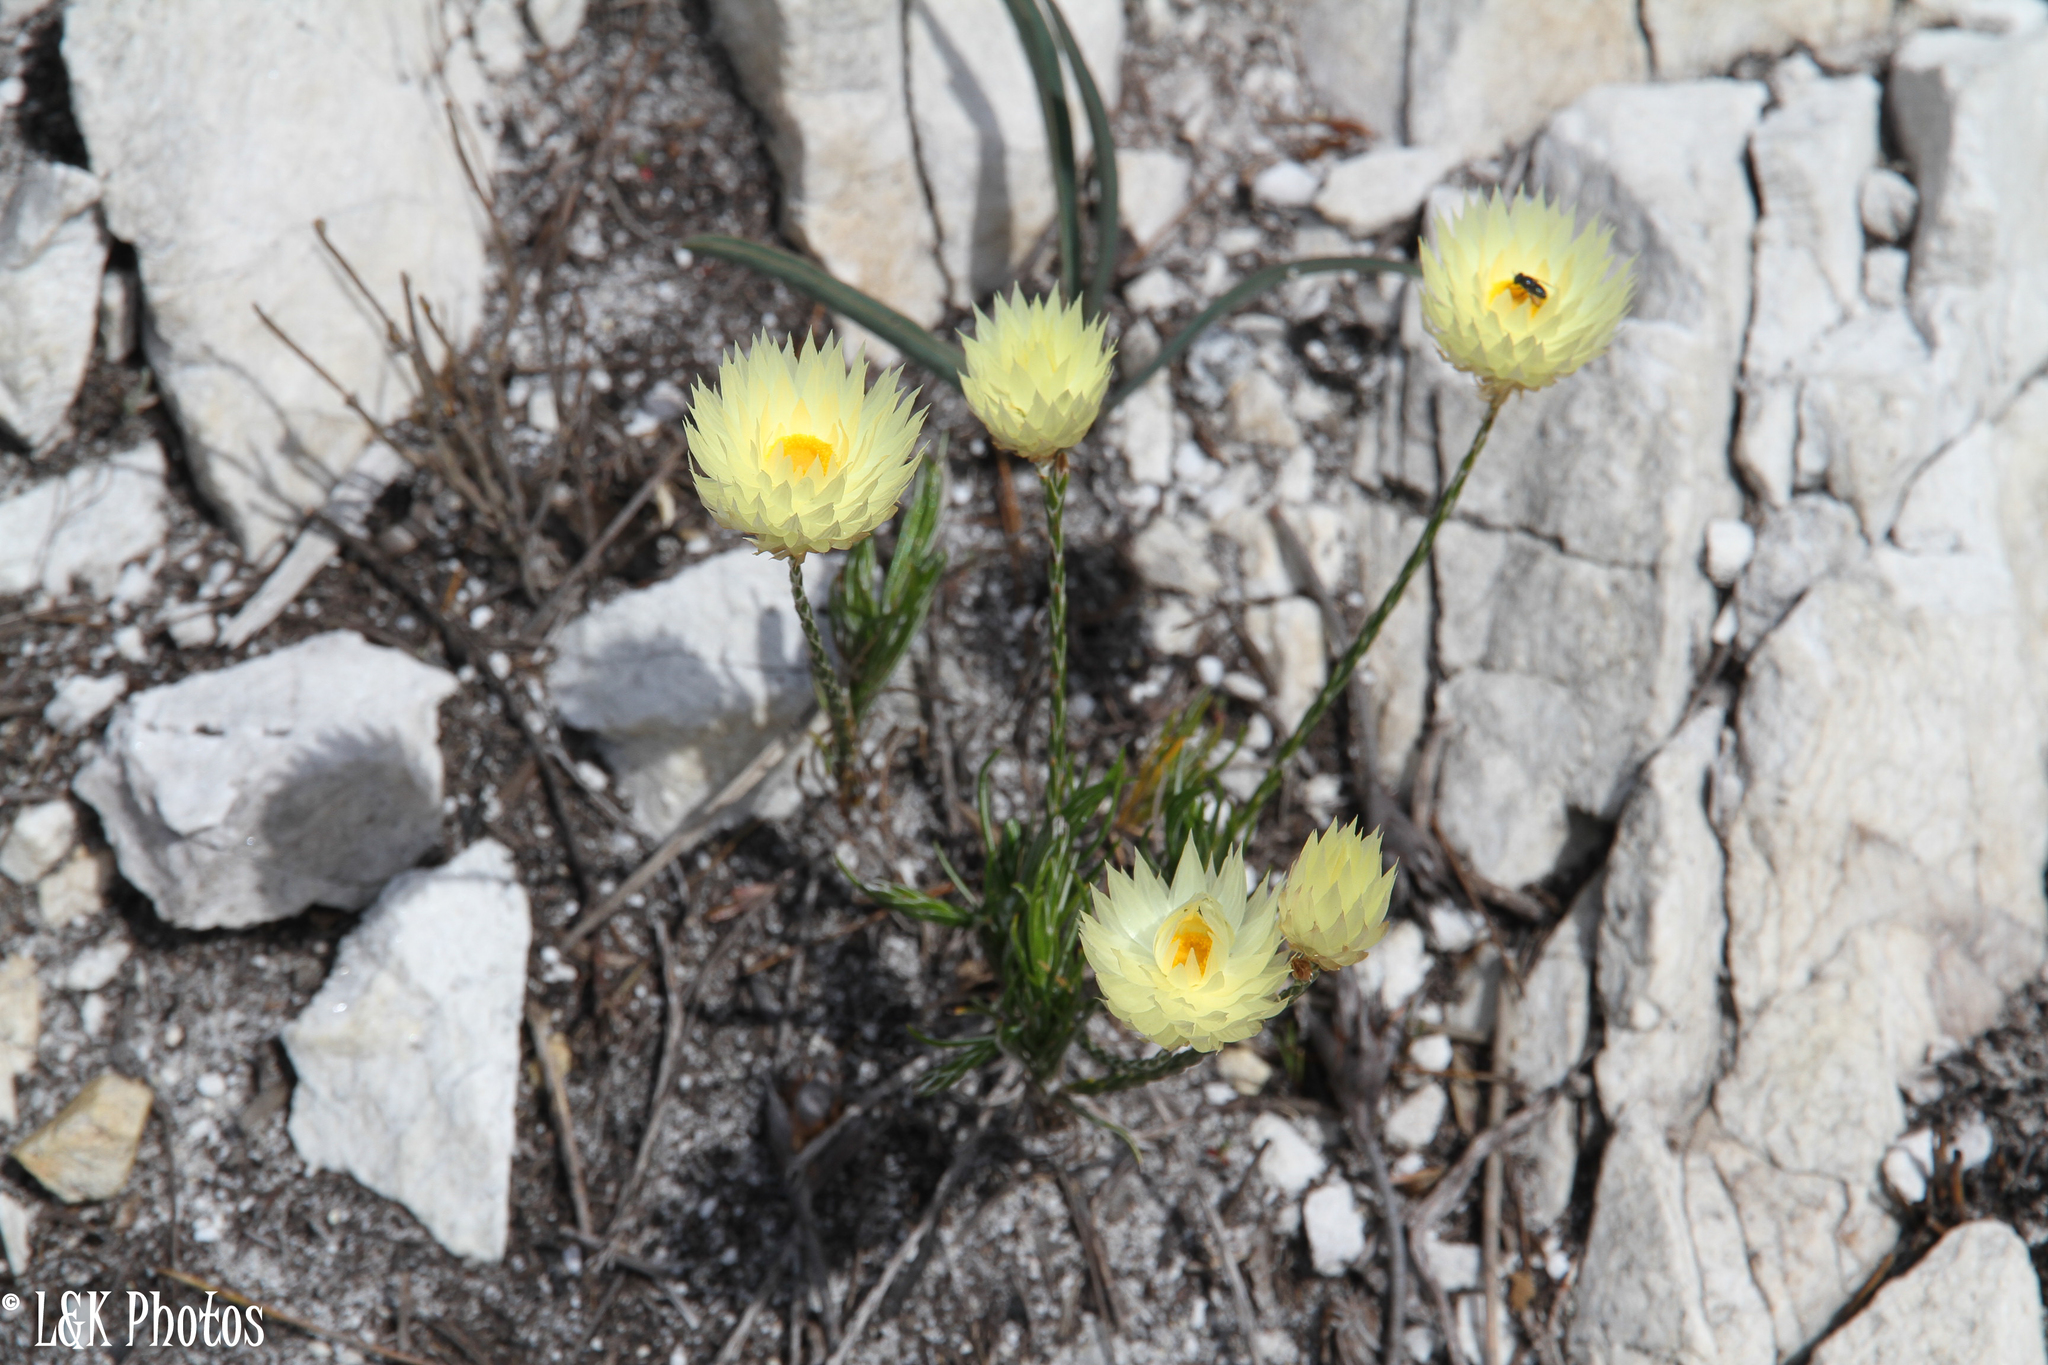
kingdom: Plantae
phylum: Tracheophyta
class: Magnoliopsida
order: Asterales
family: Asteraceae
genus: Edmondia
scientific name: Edmondia sesamoides
